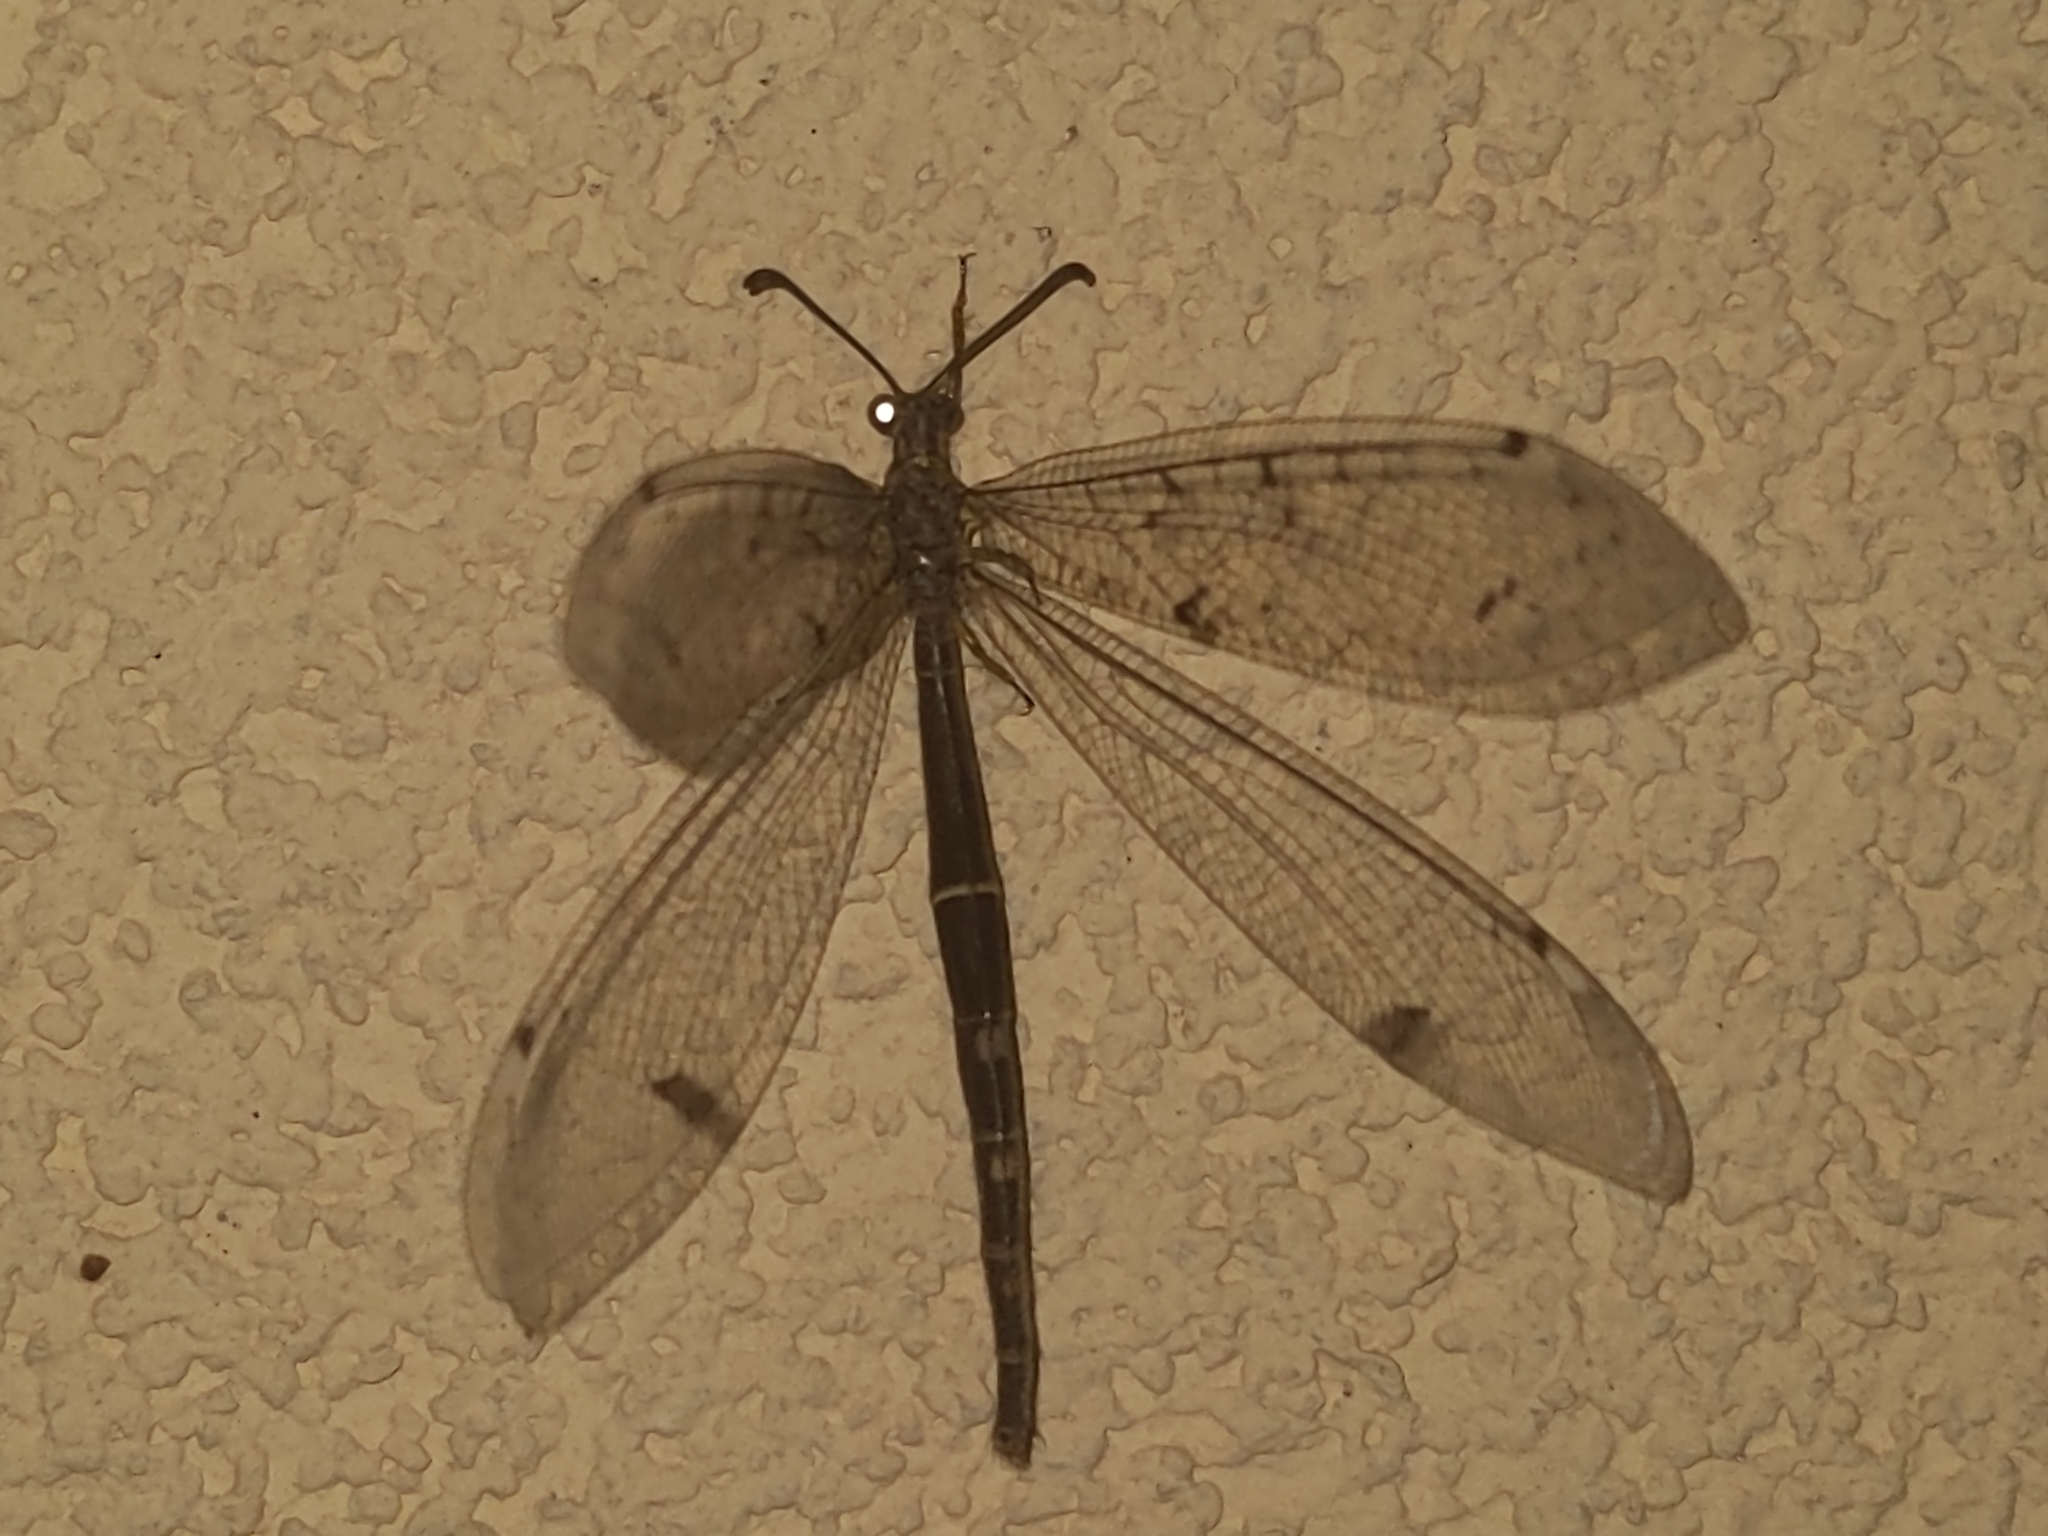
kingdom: Animalia
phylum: Arthropoda
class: Insecta
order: Neuroptera
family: Myrmeleontidae
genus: Distoleon
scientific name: Distoleon tetragrammicus
